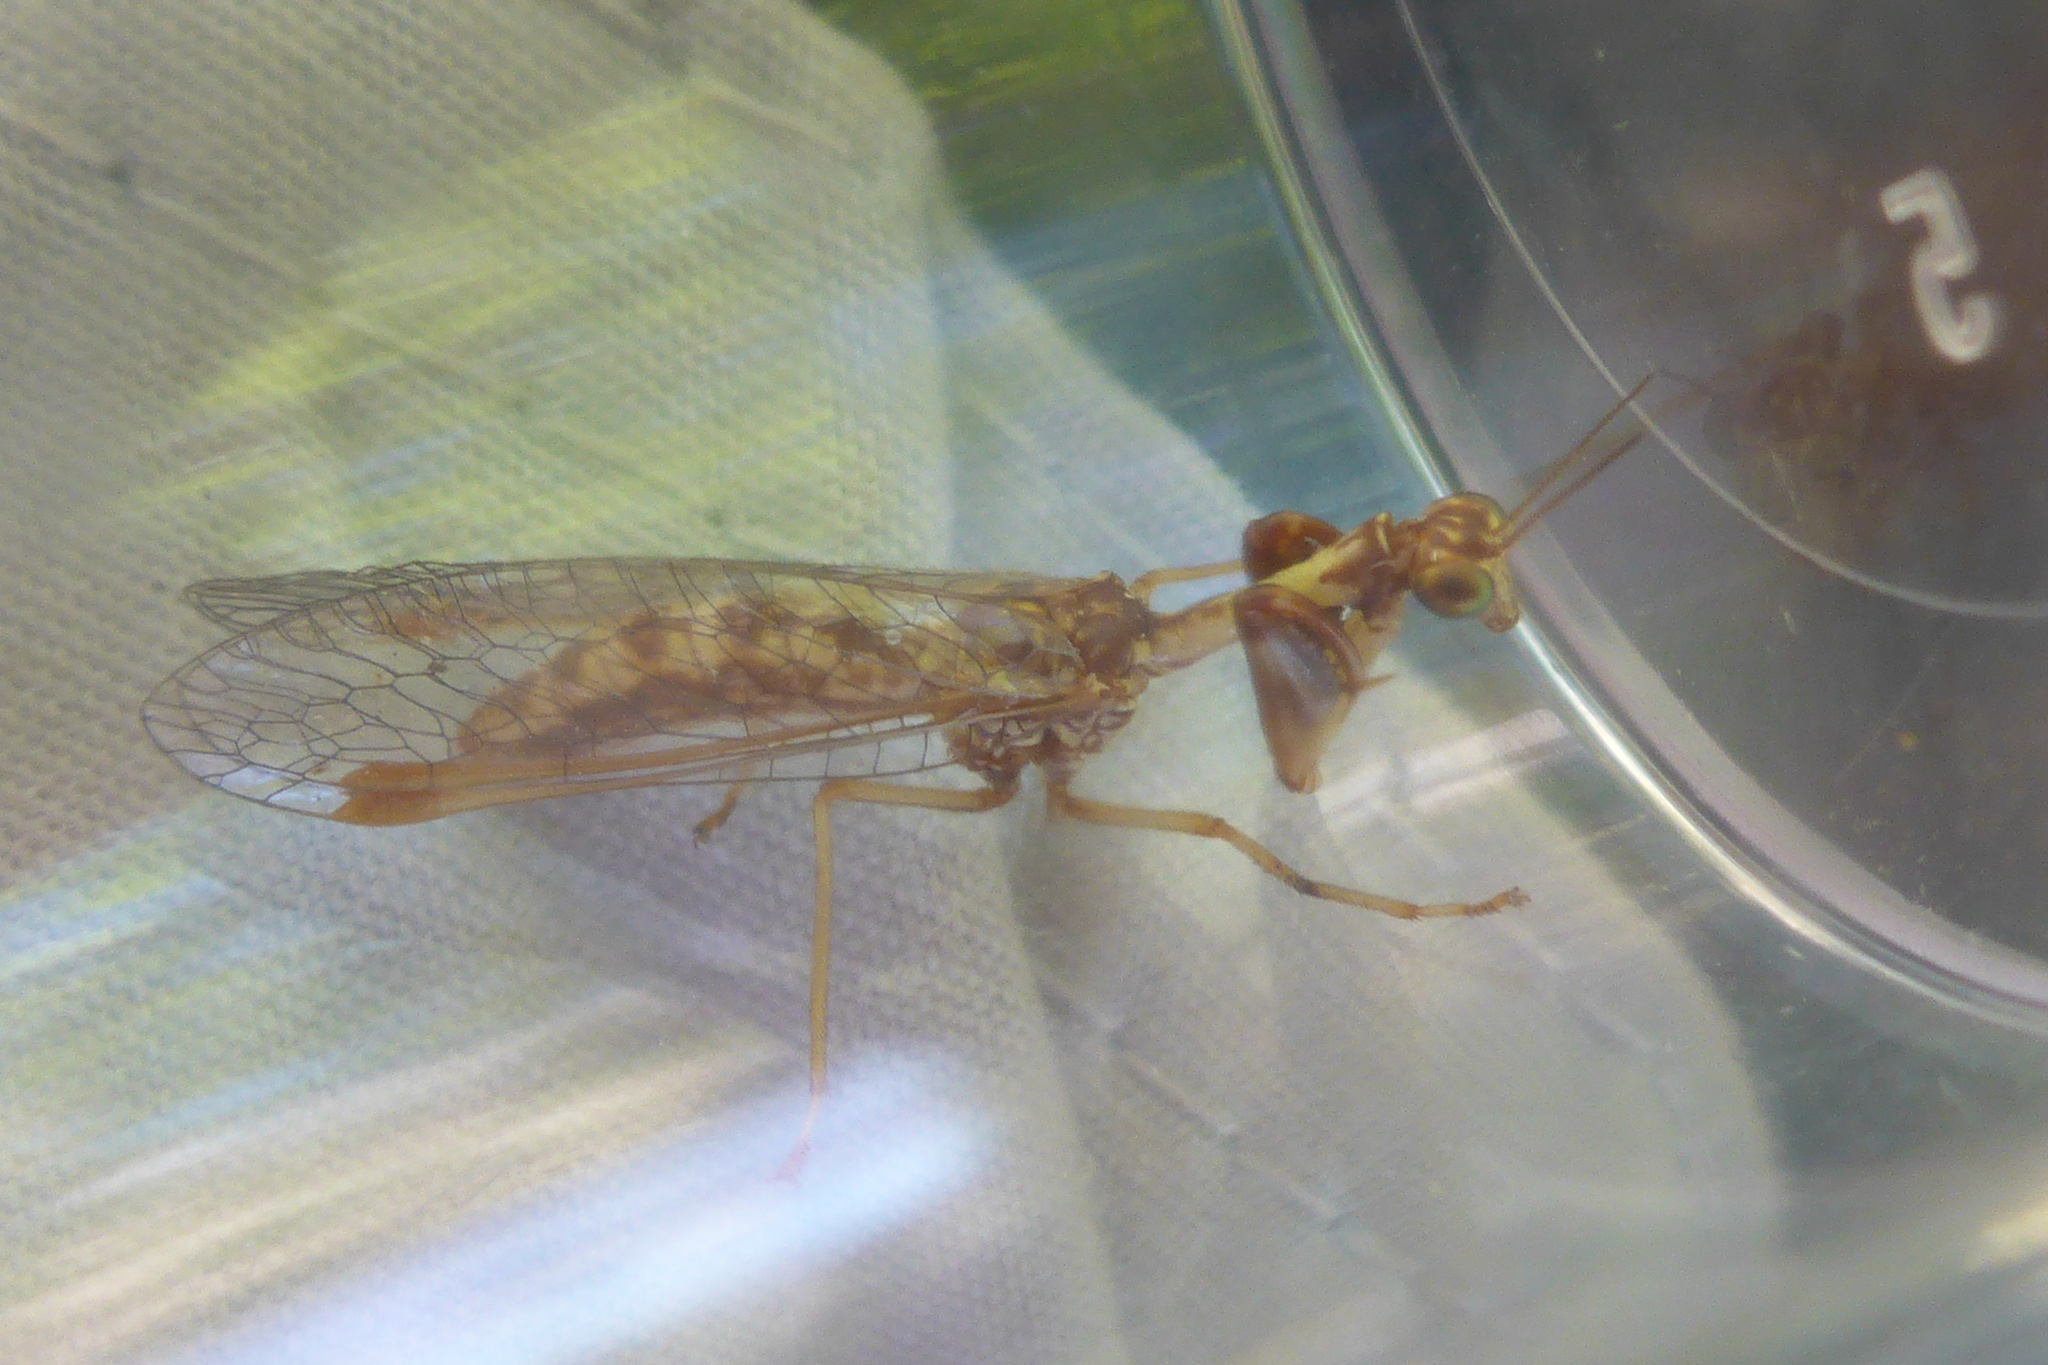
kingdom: Animalia
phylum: Arthropoda
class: Insecta
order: Neuroptera
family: Mantispidae
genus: Mantispa
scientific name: Mantispa styriaca
